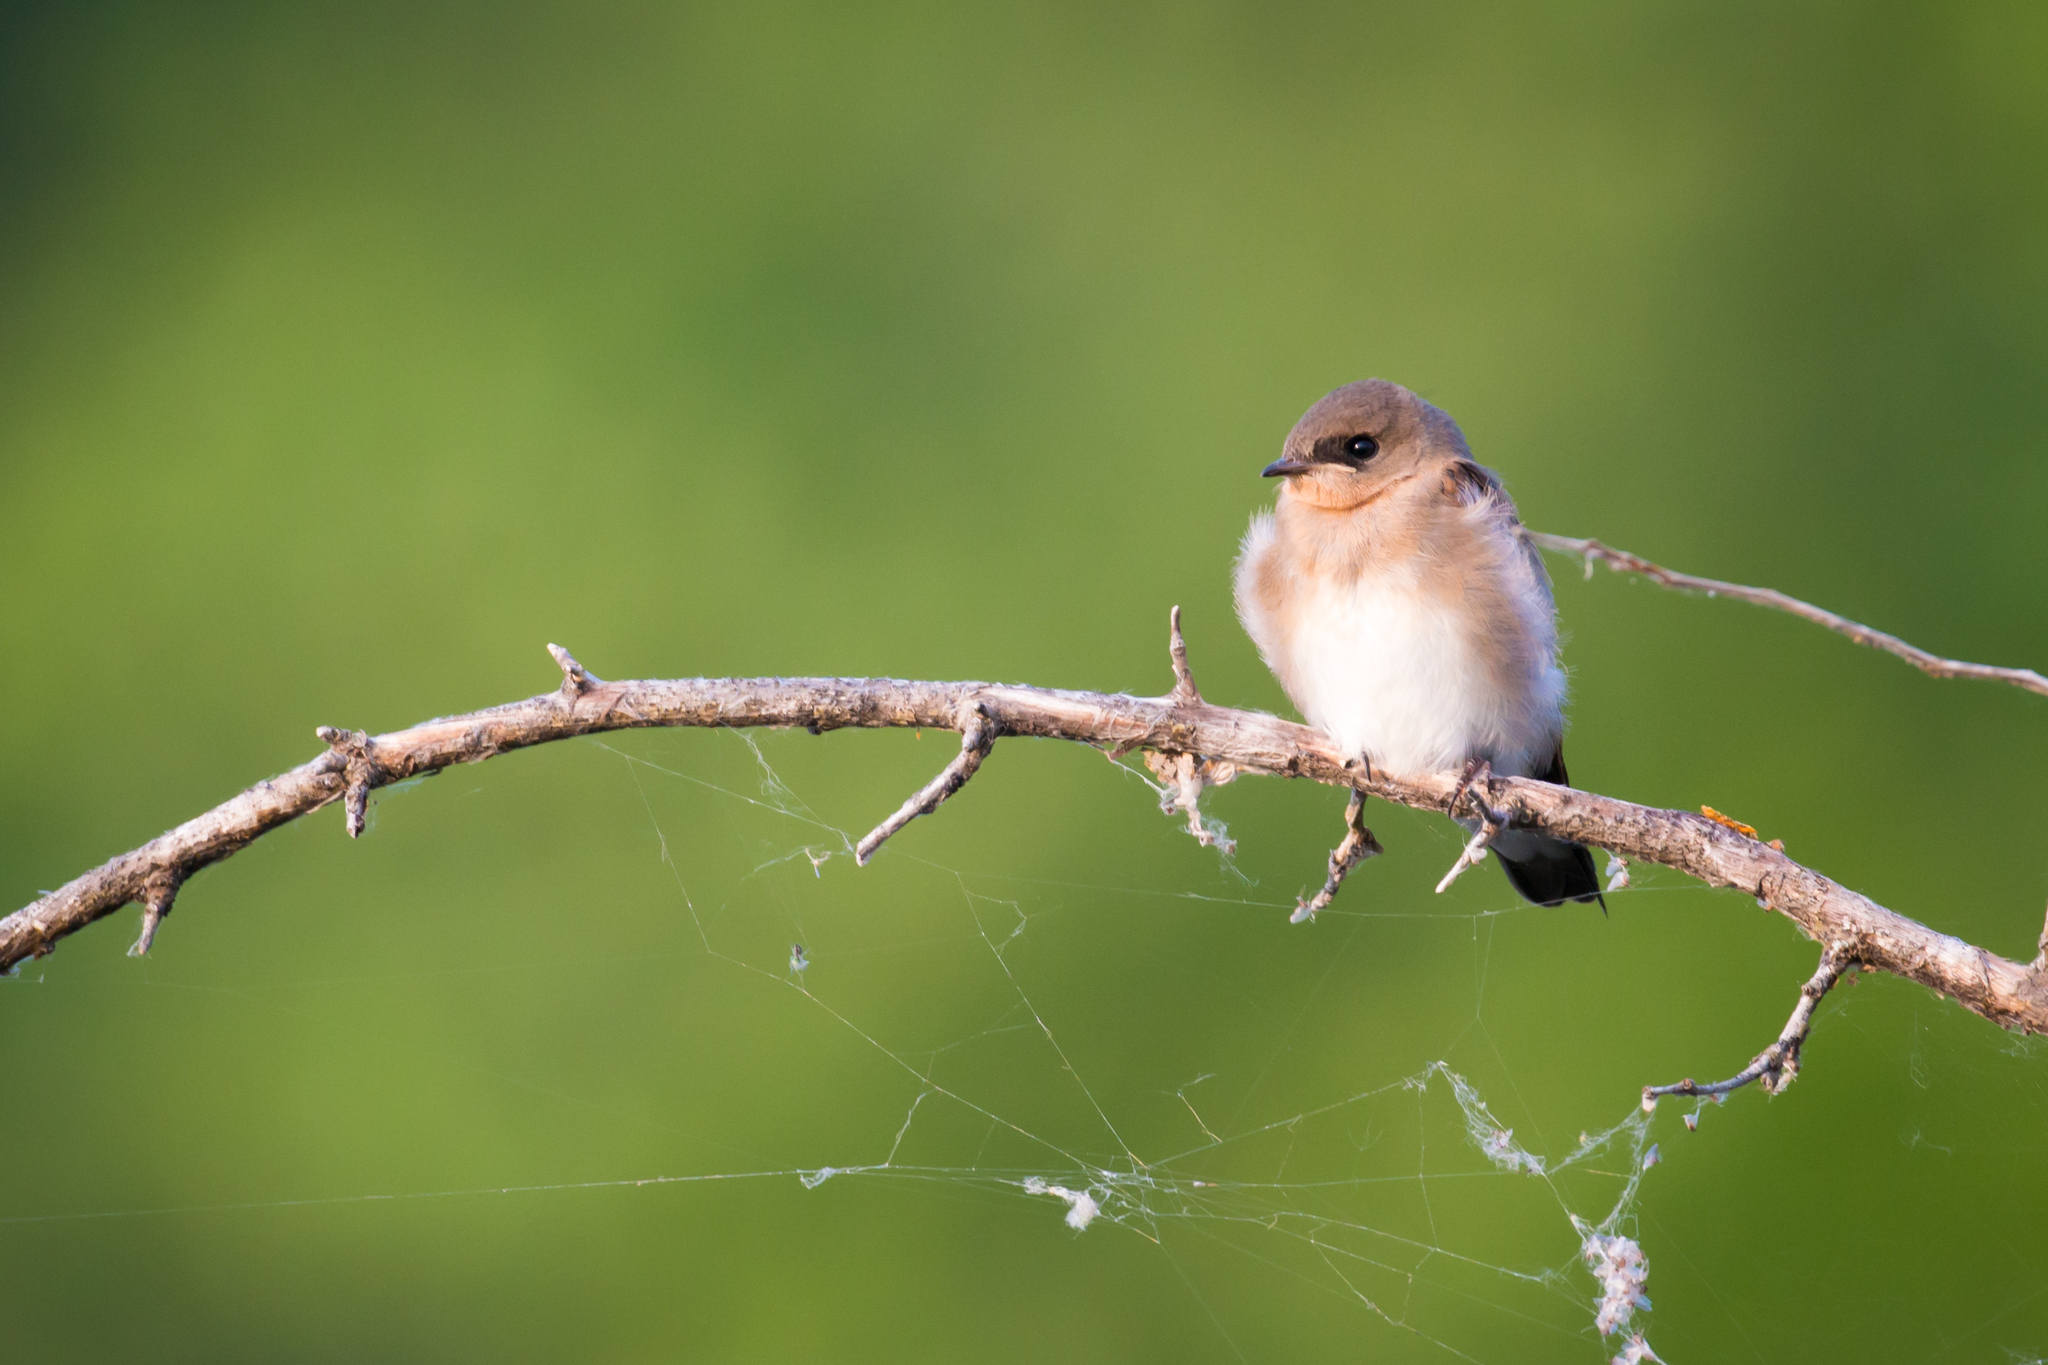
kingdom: Animalia
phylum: Chordata
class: Aves
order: Passeriformes
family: Hirundinidae
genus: Stelgidopteryx
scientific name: Stelgidopteryx serripennis
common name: Northern rough-winged swallow
